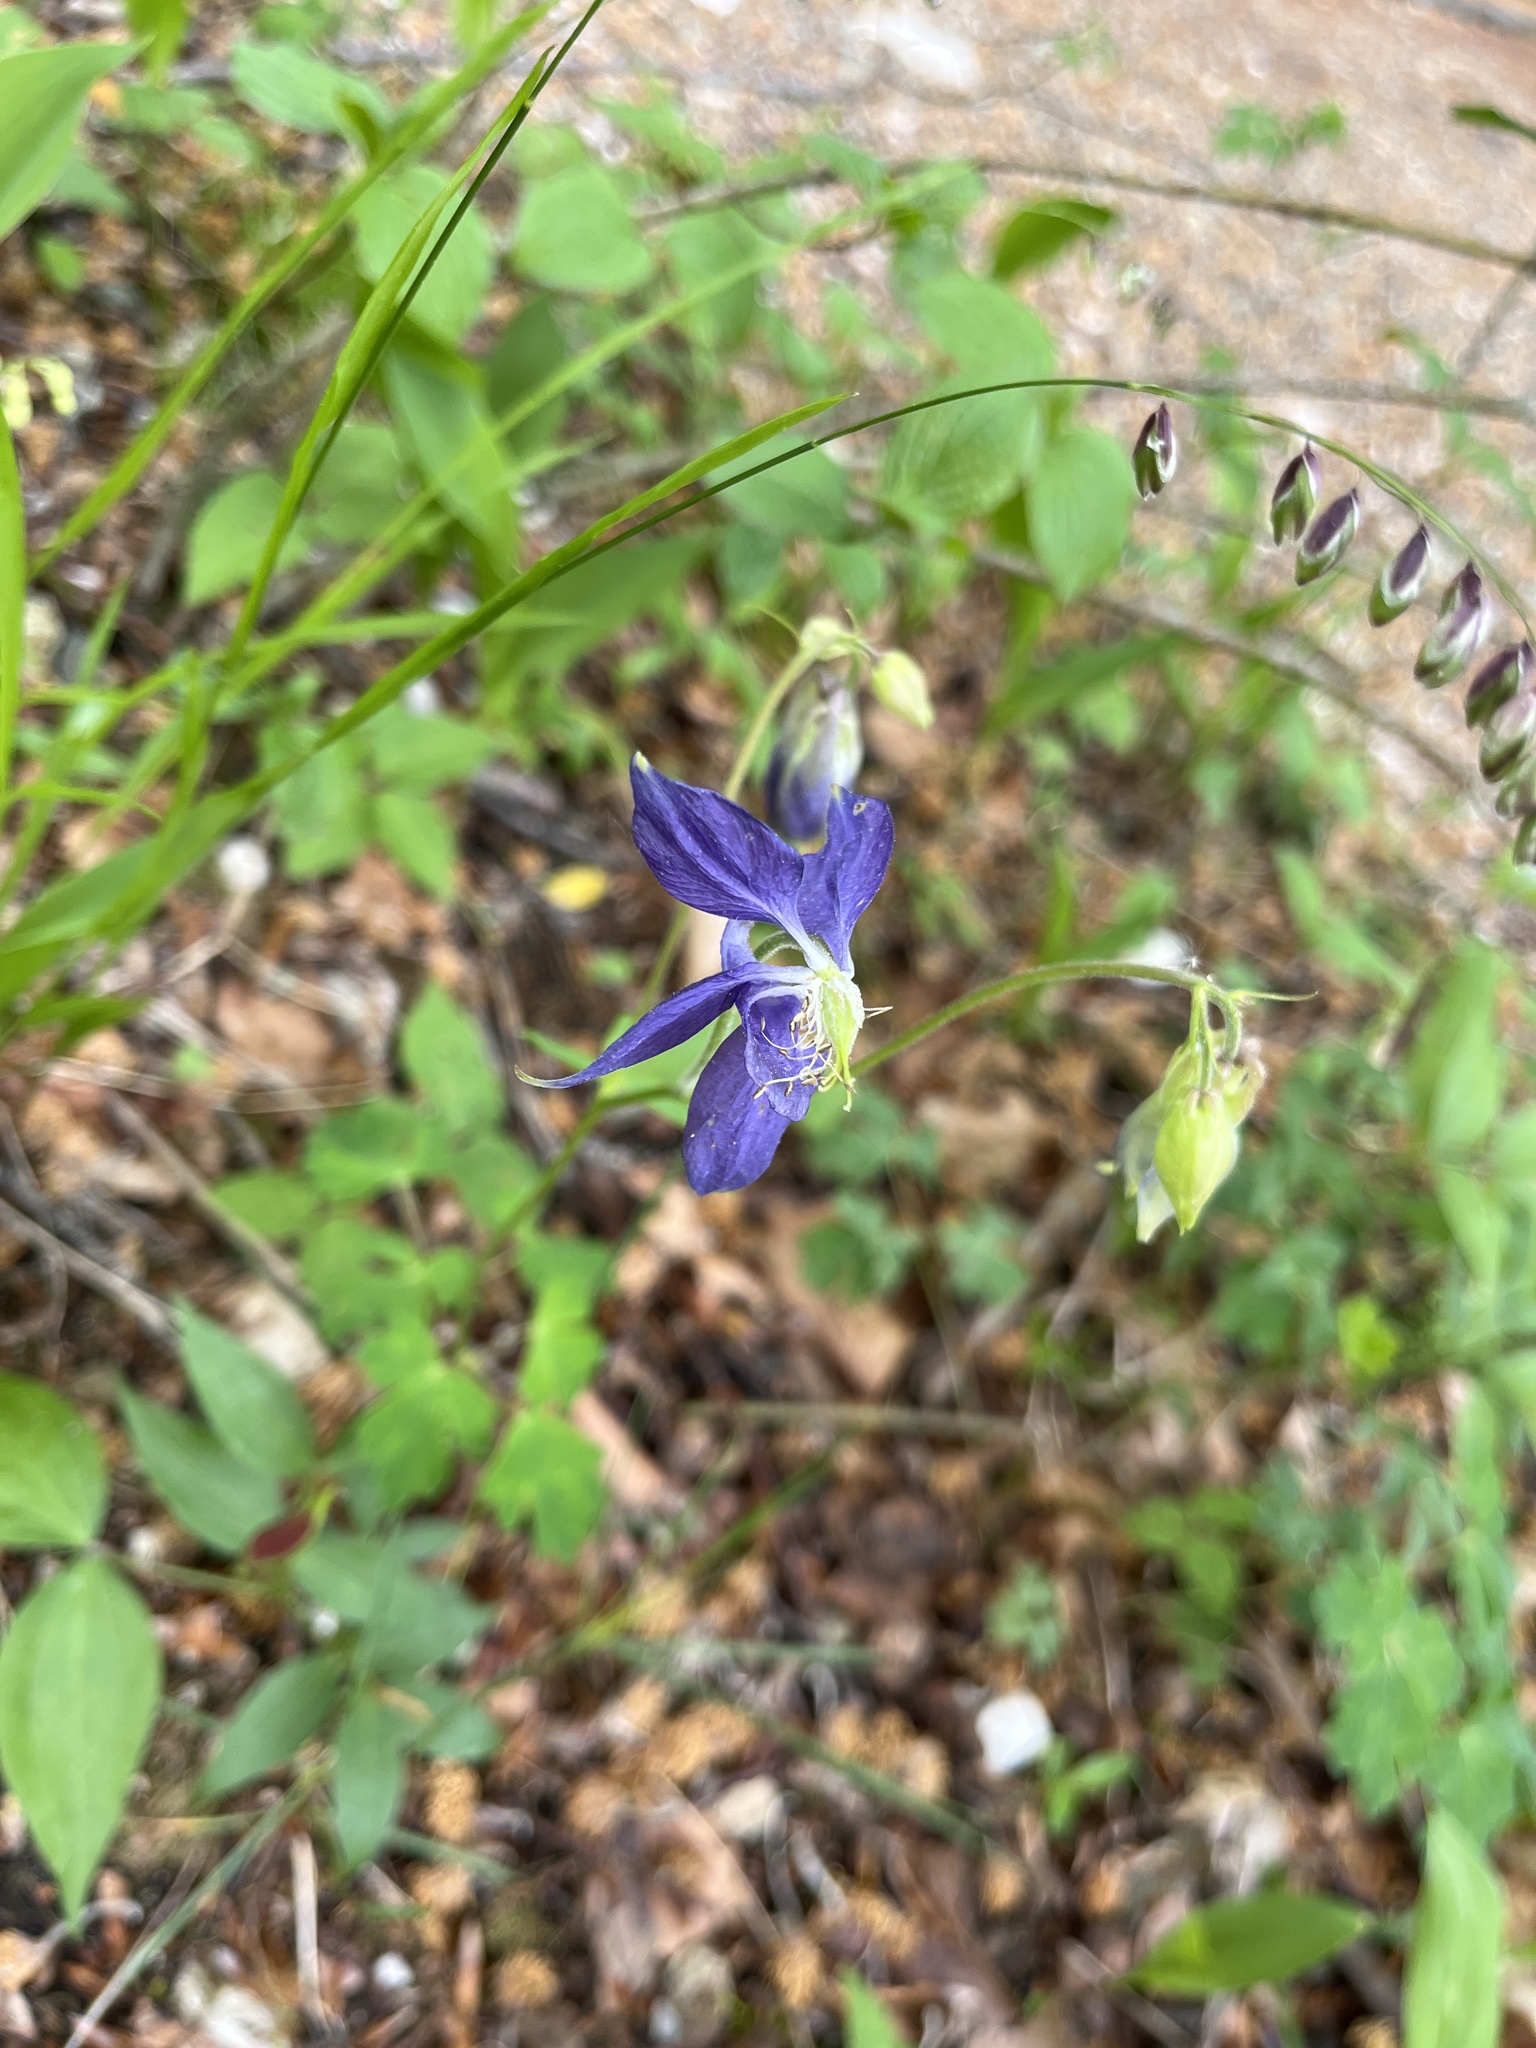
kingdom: Plantae
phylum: Tracheophyta
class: Magnoliopsida
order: Ranunculales
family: Ranunculaceae
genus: Aquilegia
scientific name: Aquilegia vulgaris
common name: Columbine
